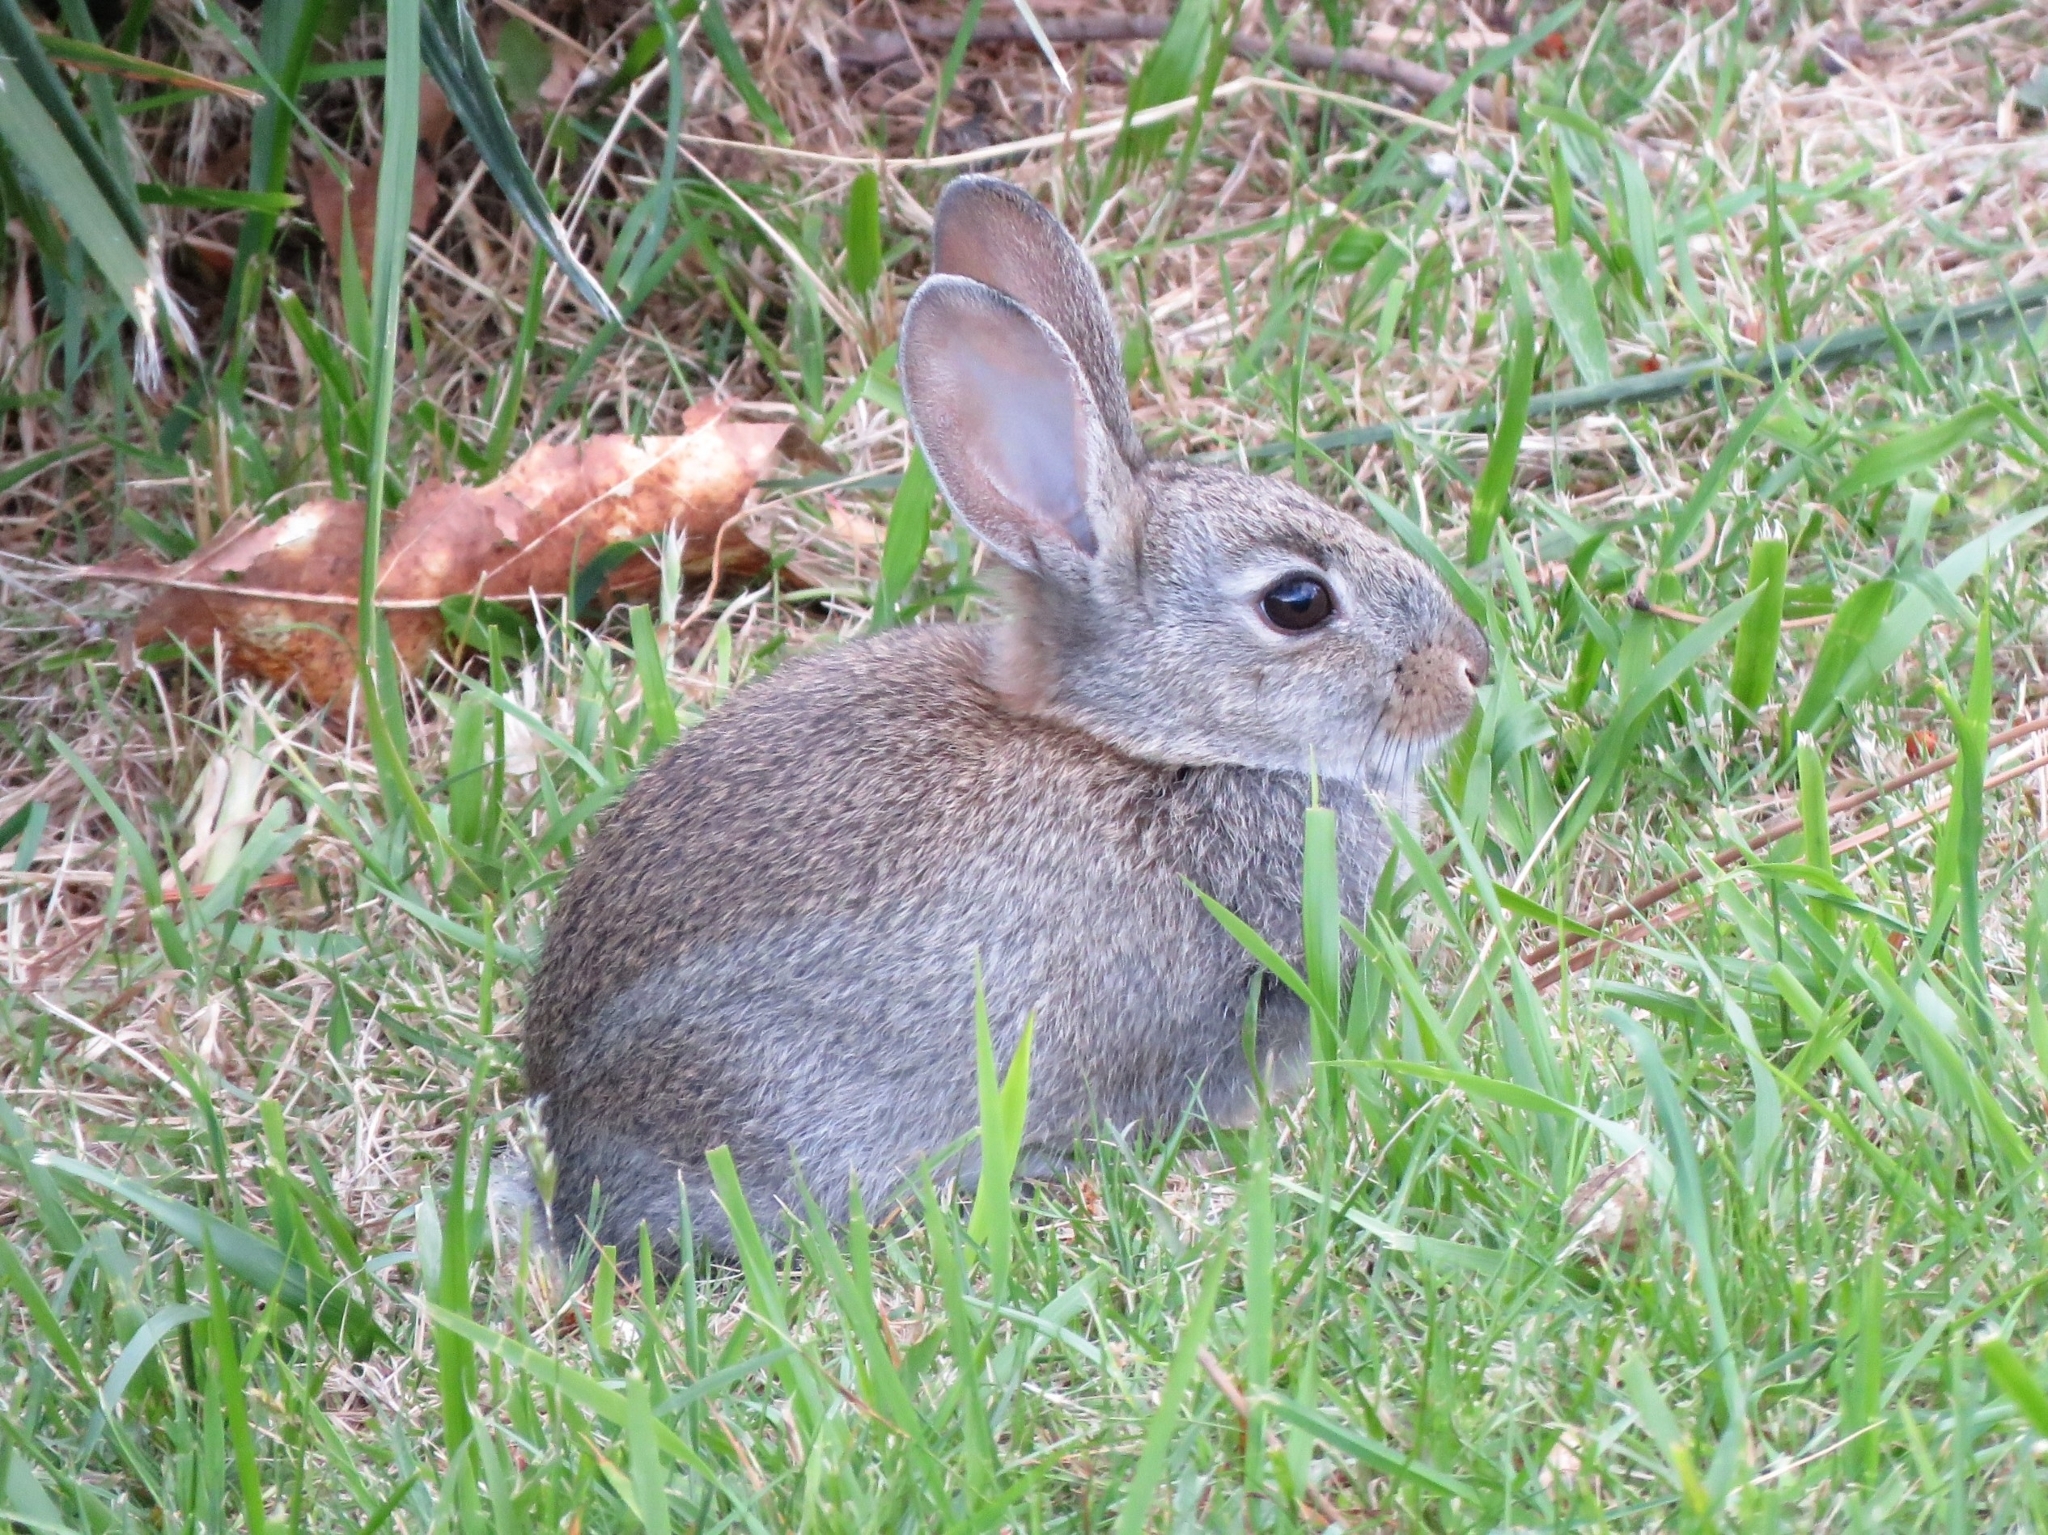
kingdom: Animalia
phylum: Chordata
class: Mammalia
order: Lagomorpha
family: Leporidae
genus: Oryctolagus
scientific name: Oryctolagus cuniculus
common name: European rabbit
